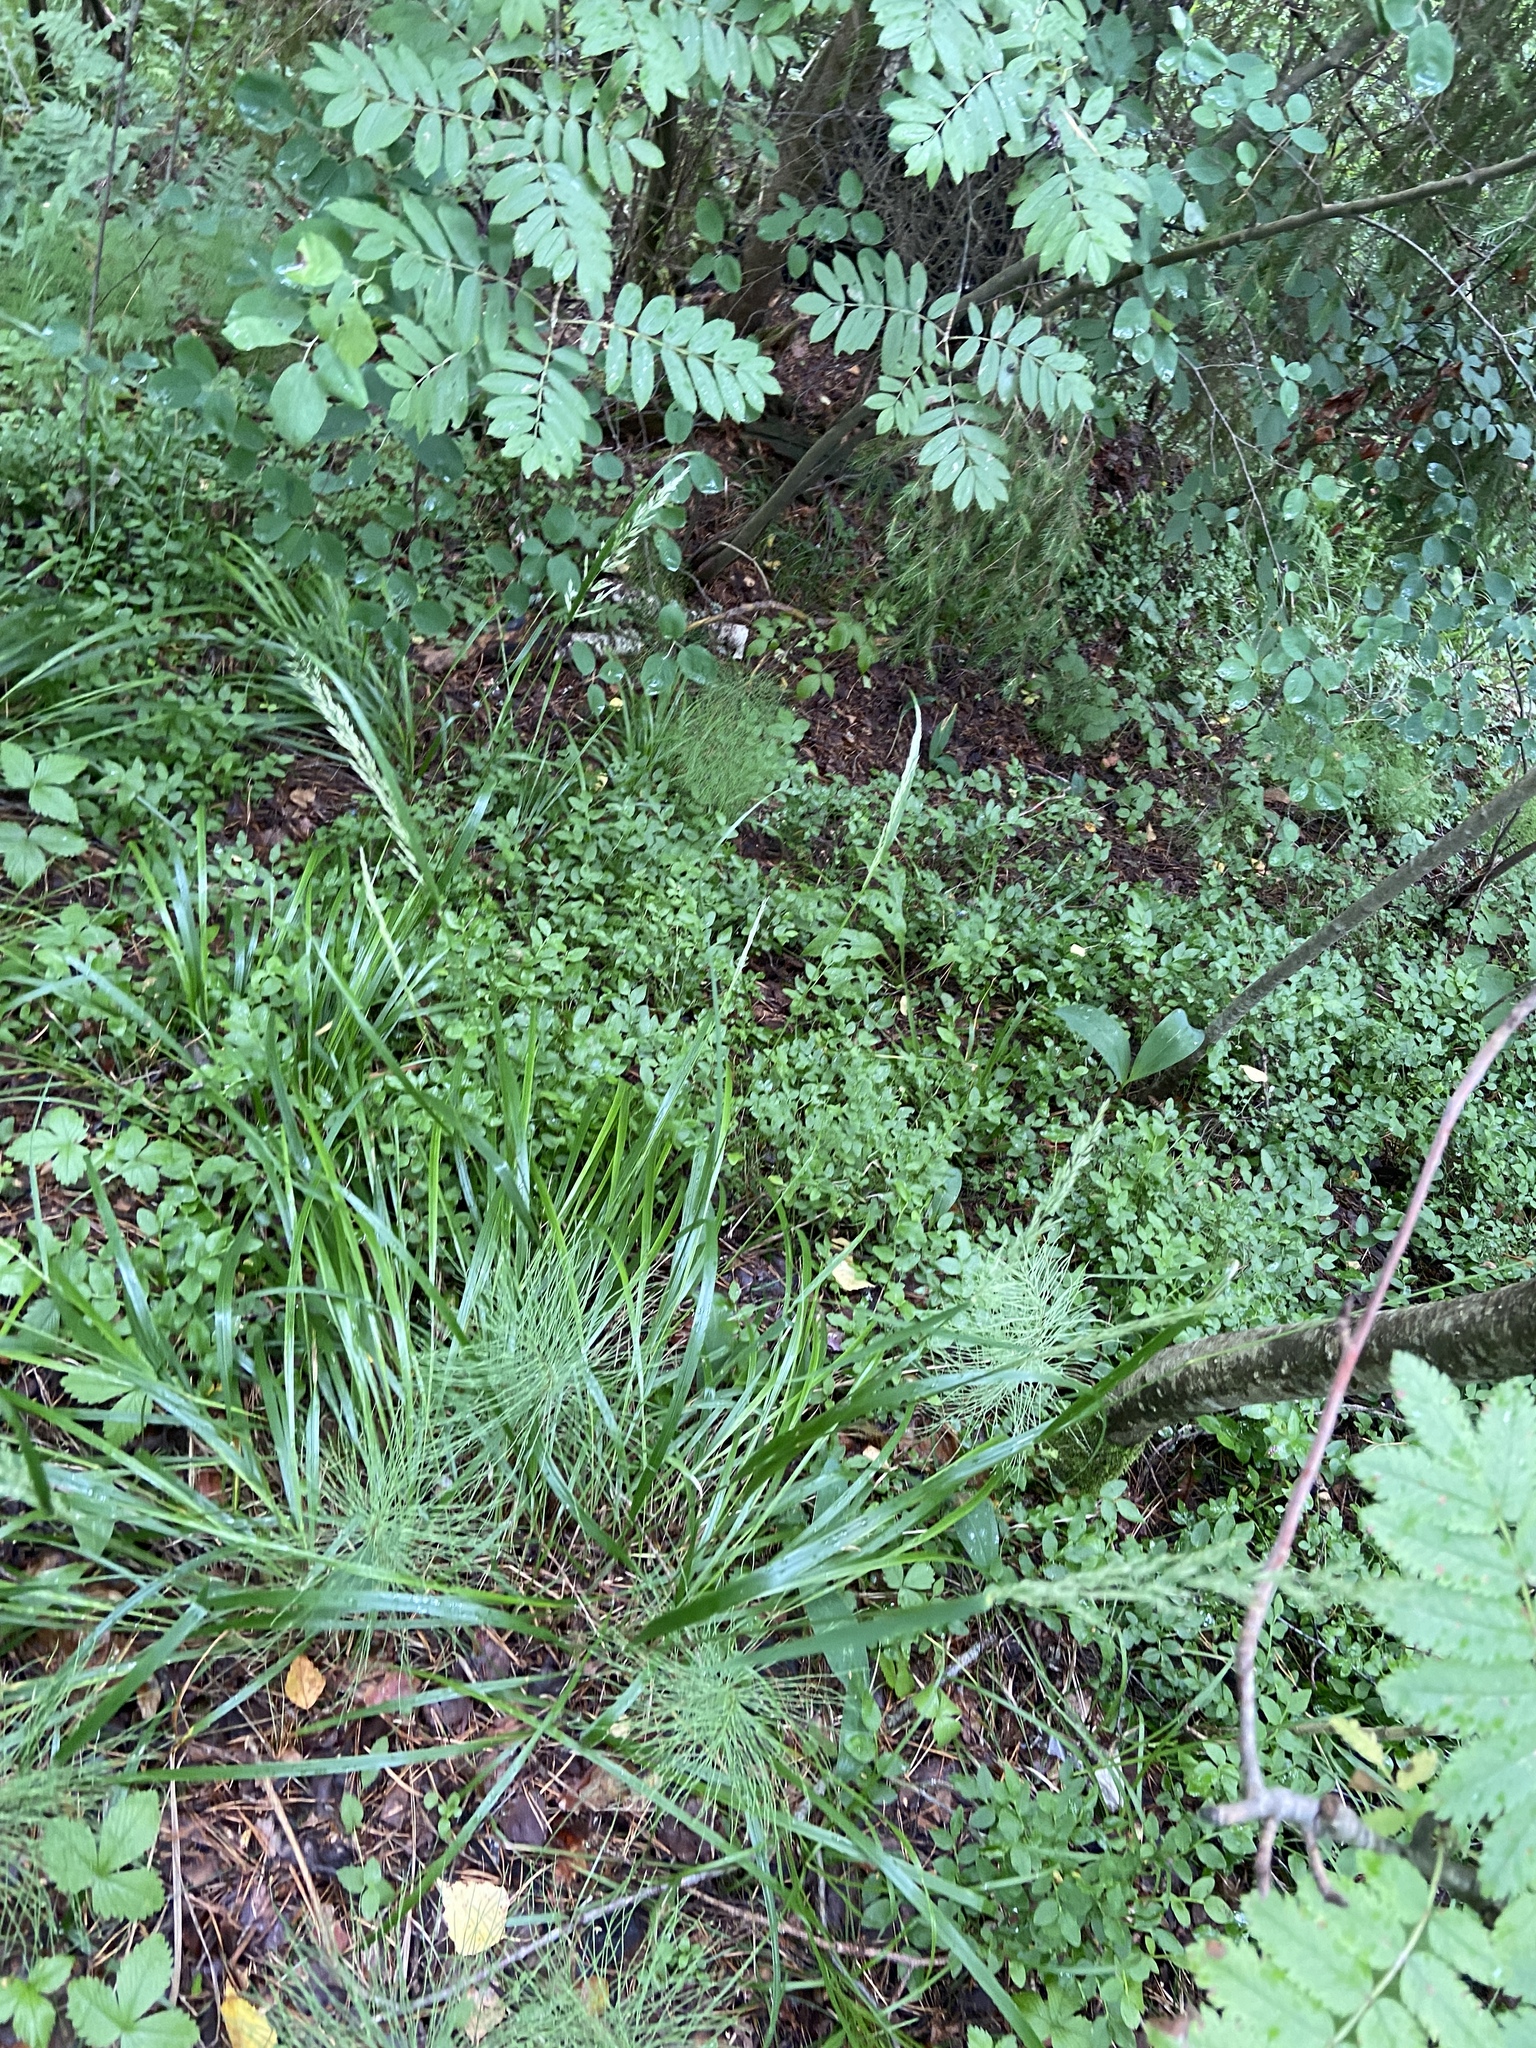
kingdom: Plantae
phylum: Tracheophyta
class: Liliopsida
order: Poales
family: Poaceae
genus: Calamagrostis
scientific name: Calamagrostis arundinacea
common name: Metskastik
